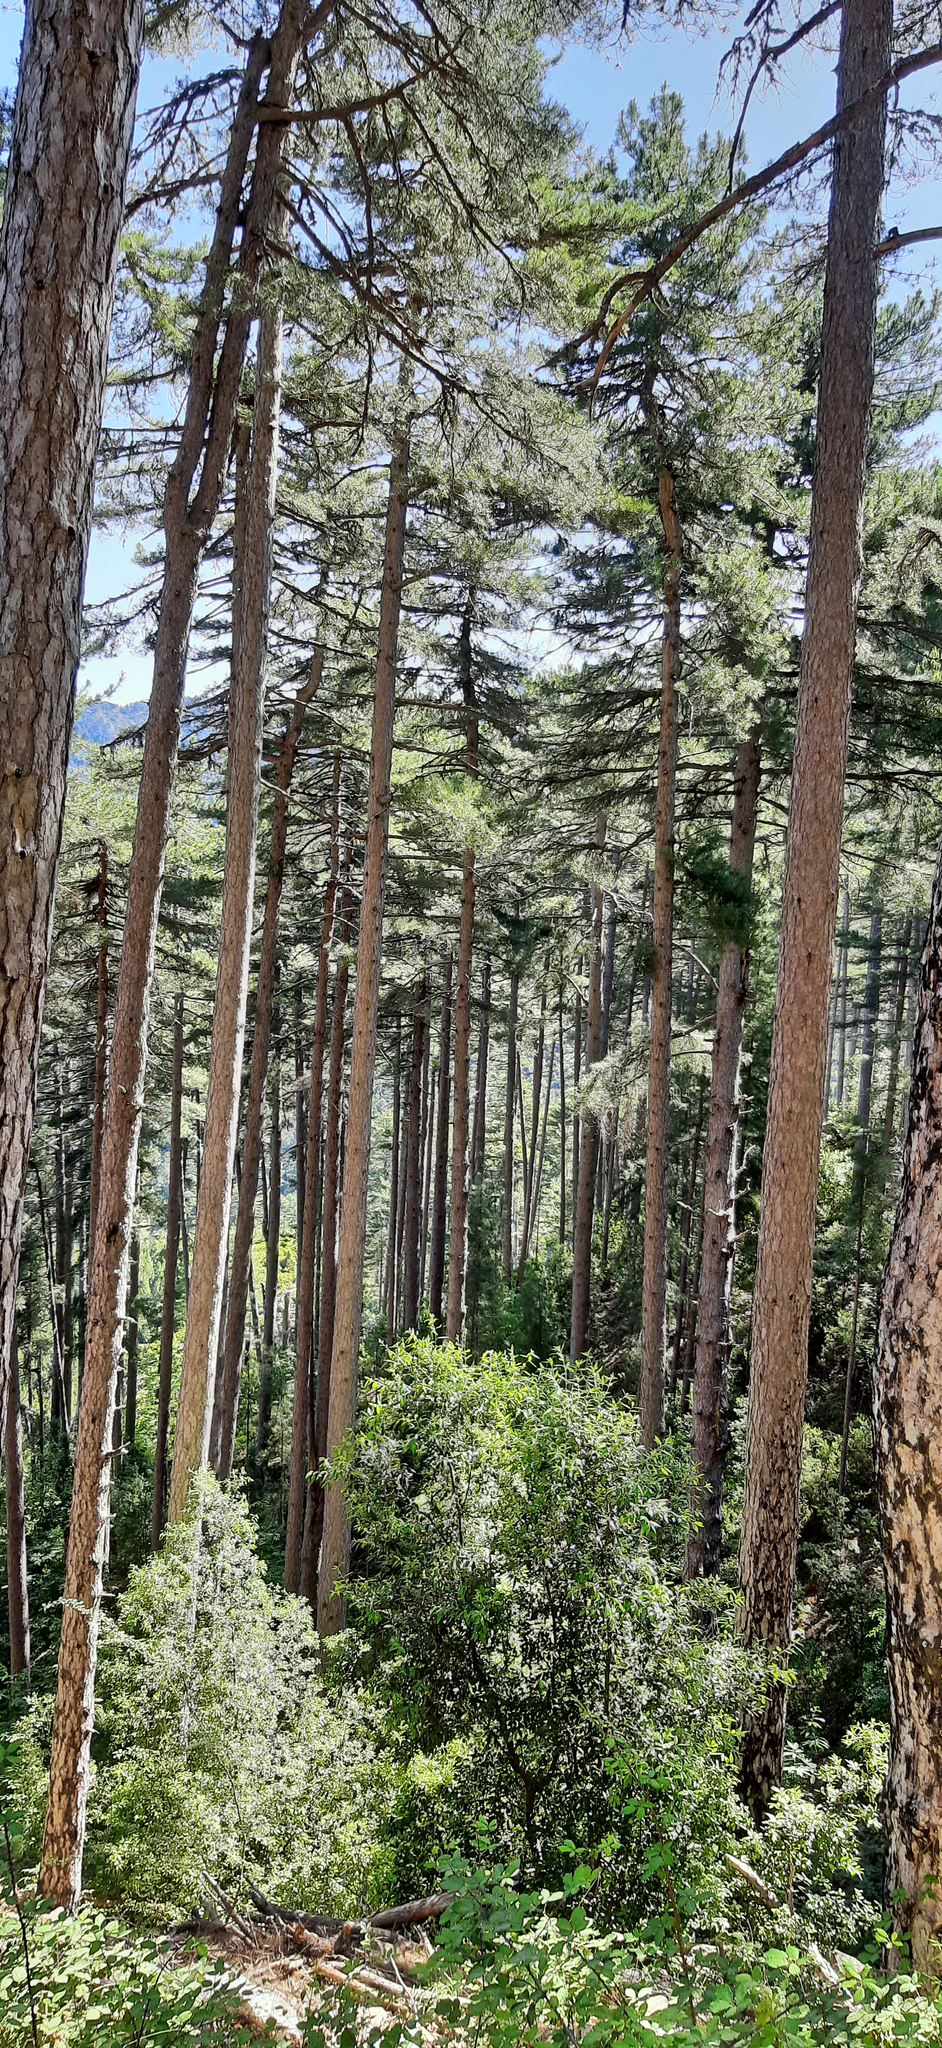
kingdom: Plantae
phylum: Tracheophyta
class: Pinopsida
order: Pinales
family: Pinaceae
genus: Pinus
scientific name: Pinus nigra
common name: Austrian pine
